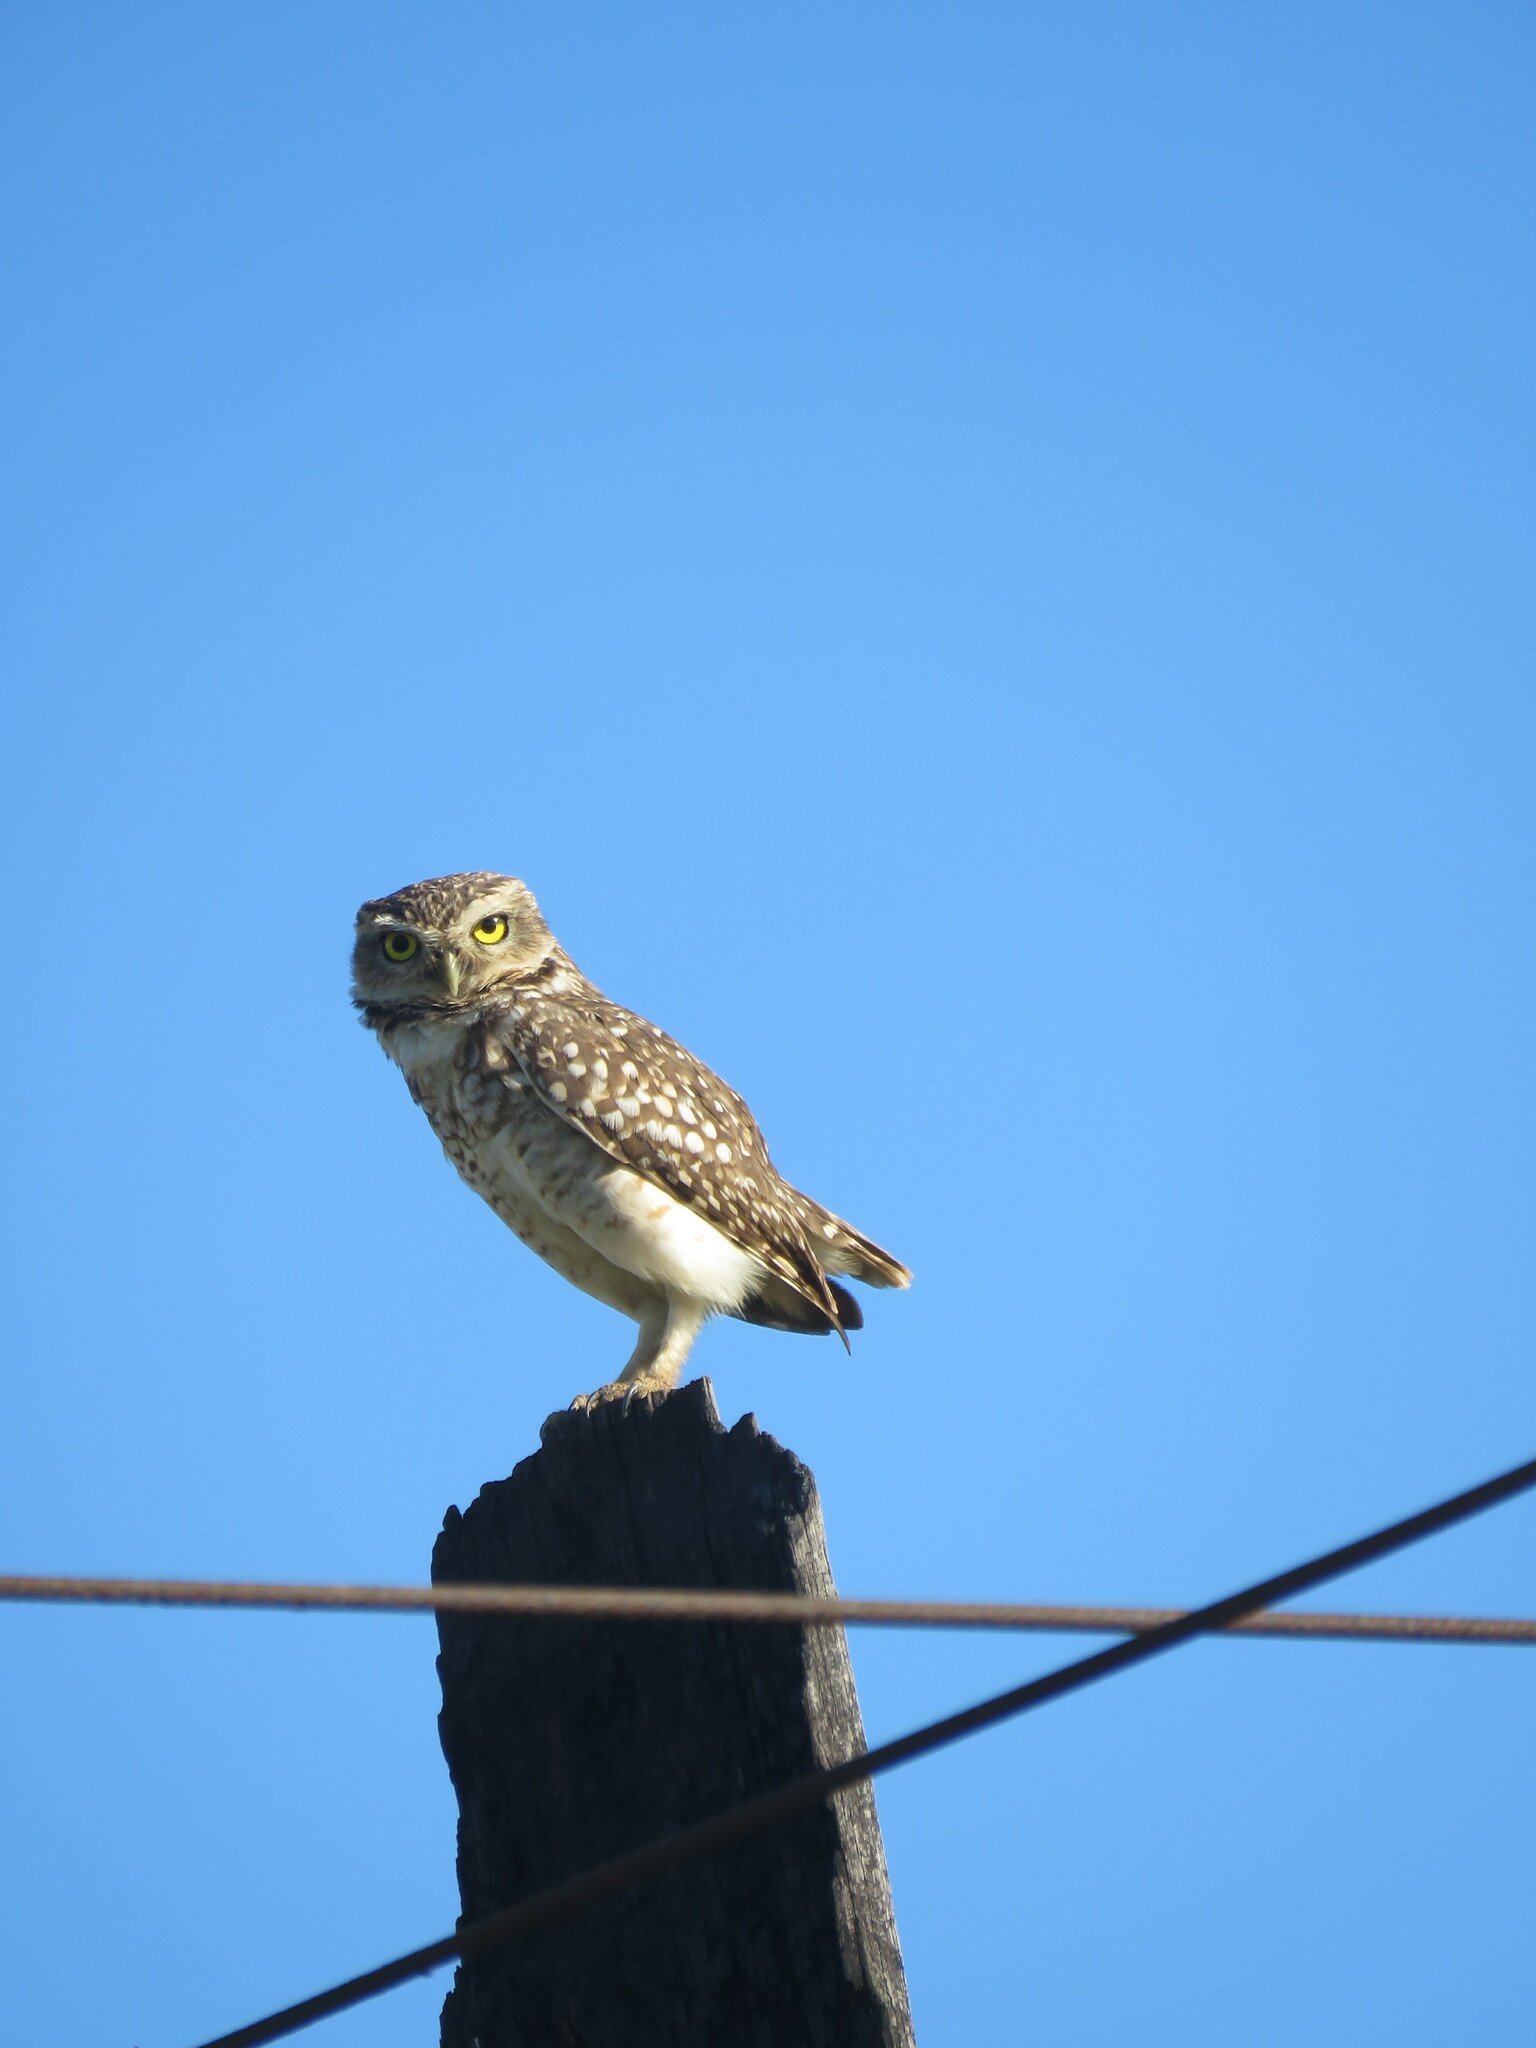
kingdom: Animalia
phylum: Chordata
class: Aves
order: Strigiformes
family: Strigidae
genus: Athene
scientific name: Athene cunicularia
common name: Burrowing owl
